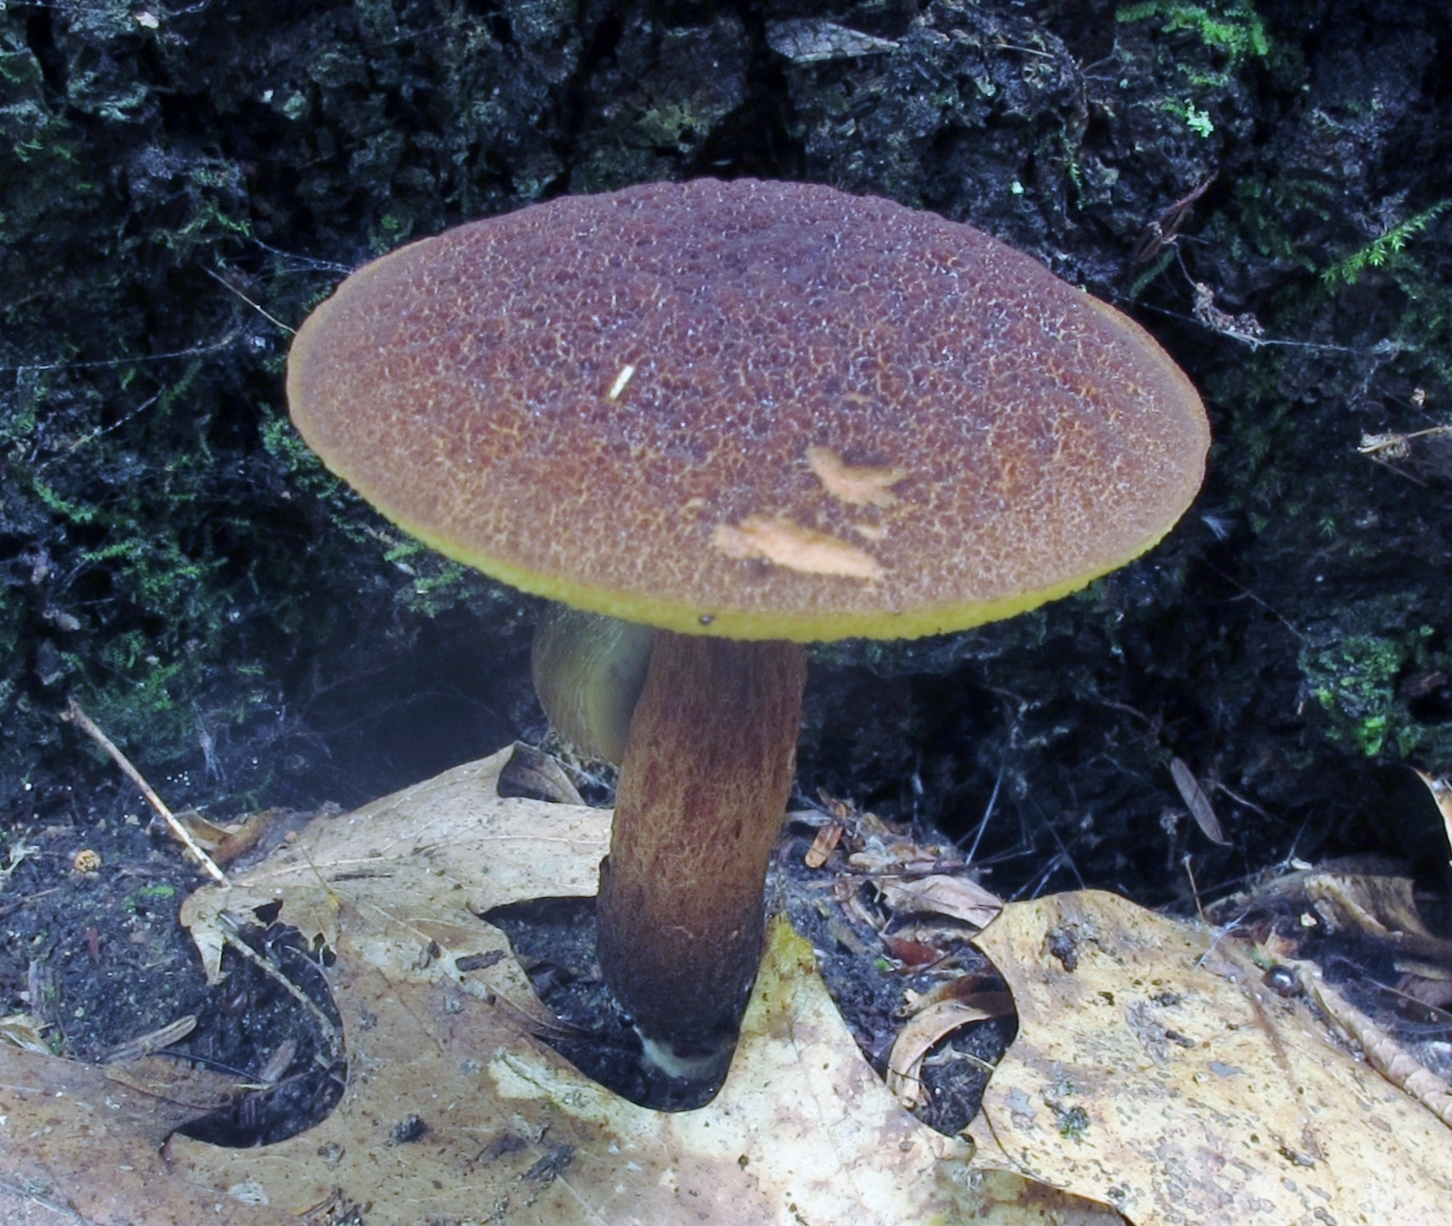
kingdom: Fungi
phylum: Basidiomycota
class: Agaricomycetes
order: Boletales
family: Boletaceae
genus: Boletellus
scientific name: Boletellus chrysenteroides
